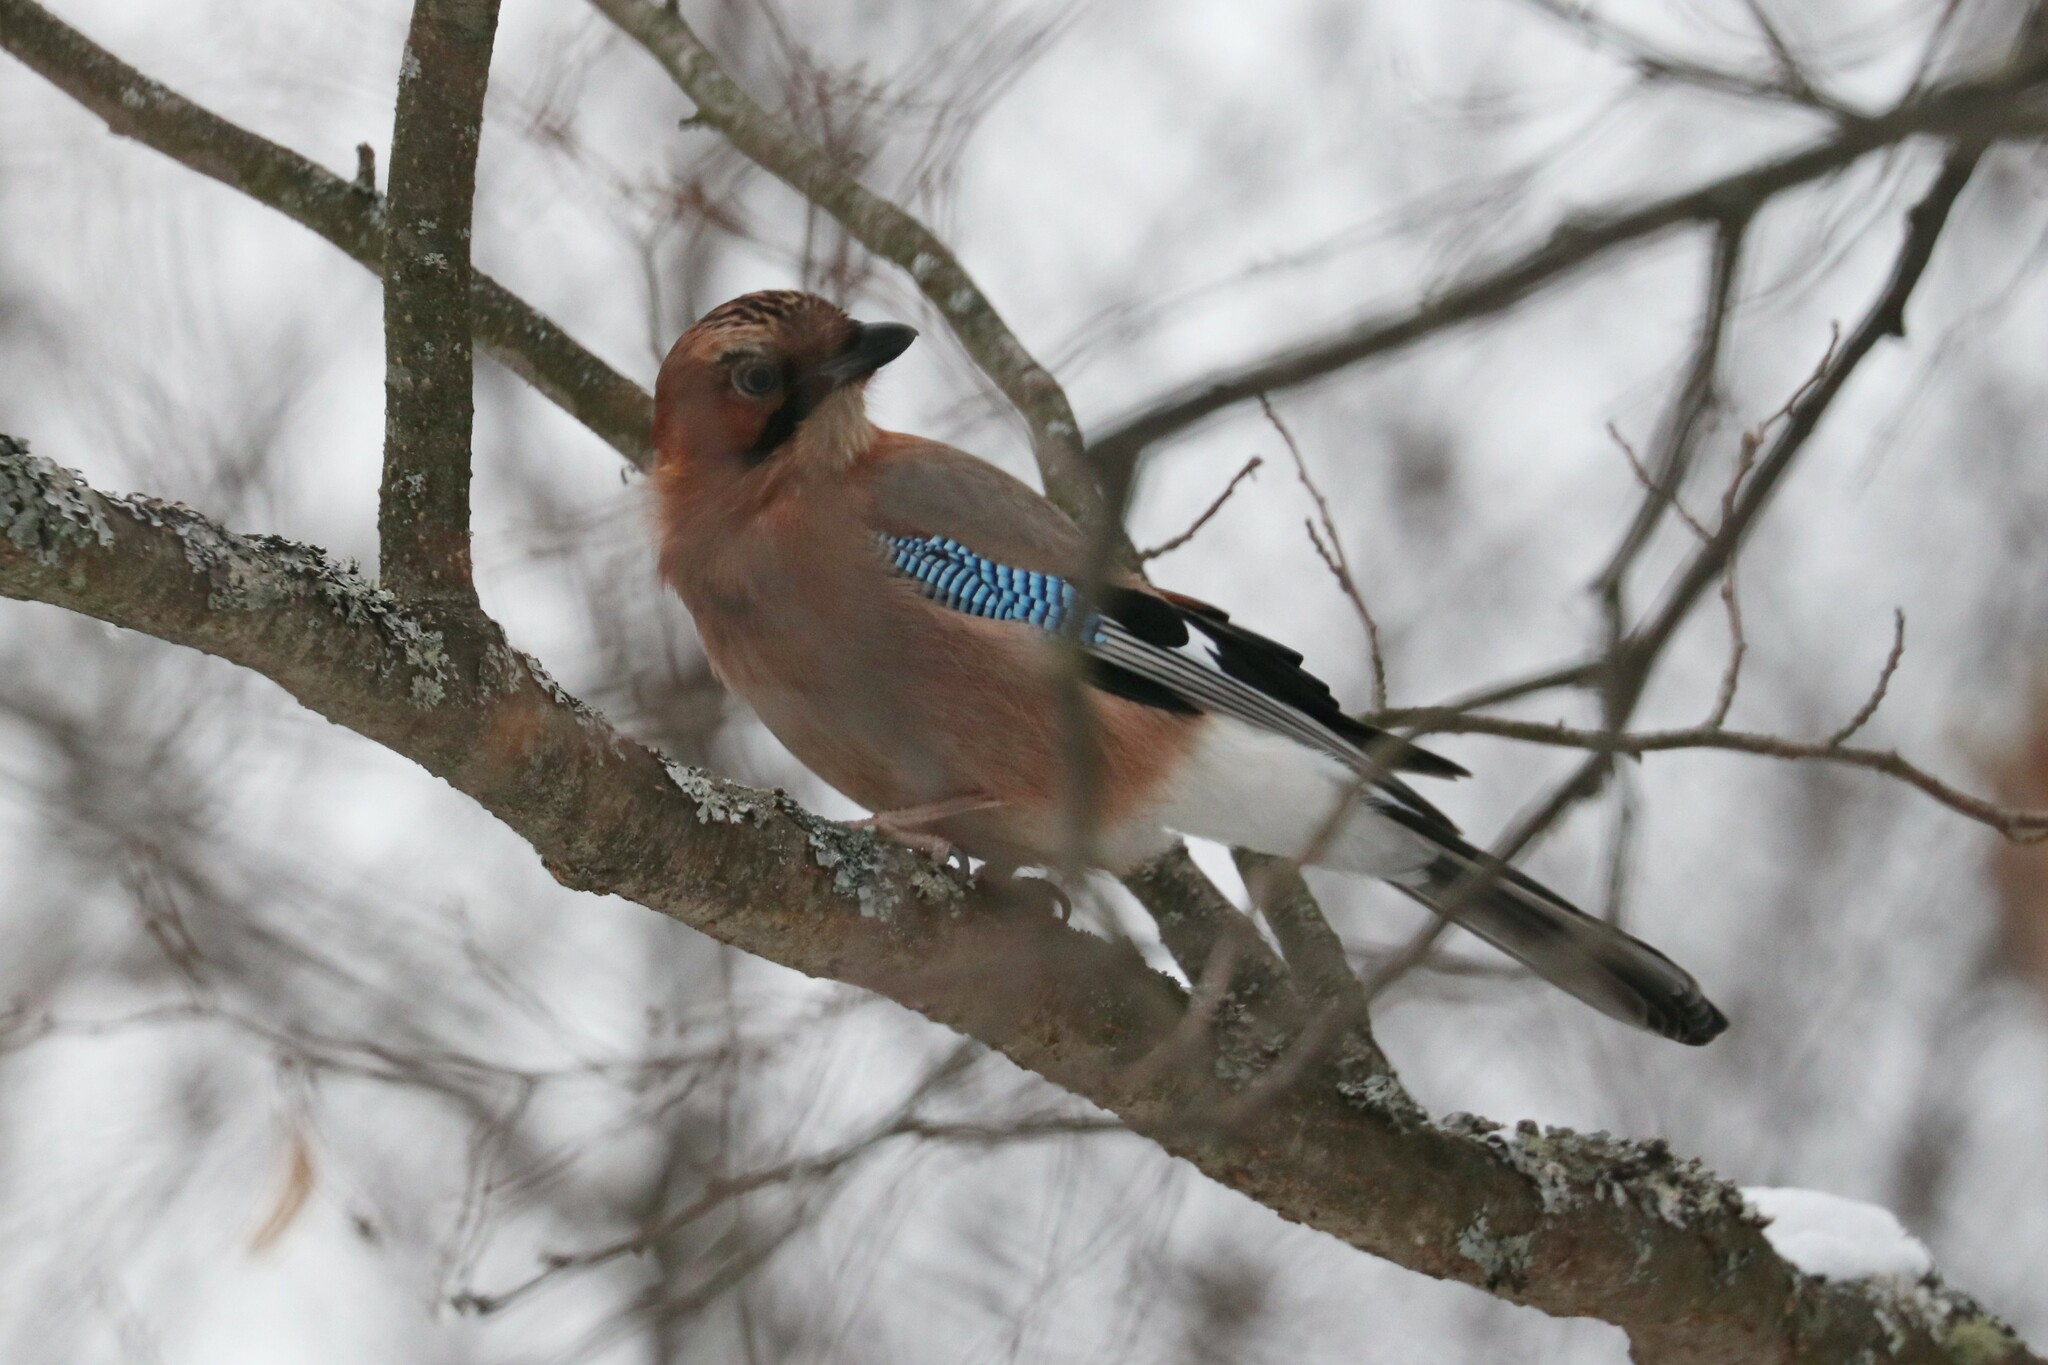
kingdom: Animalia
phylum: Chordata
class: Aves
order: Passeriformes
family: Corvidae
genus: Garrulus
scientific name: Garrulus glandarius
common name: Eurasian jay
